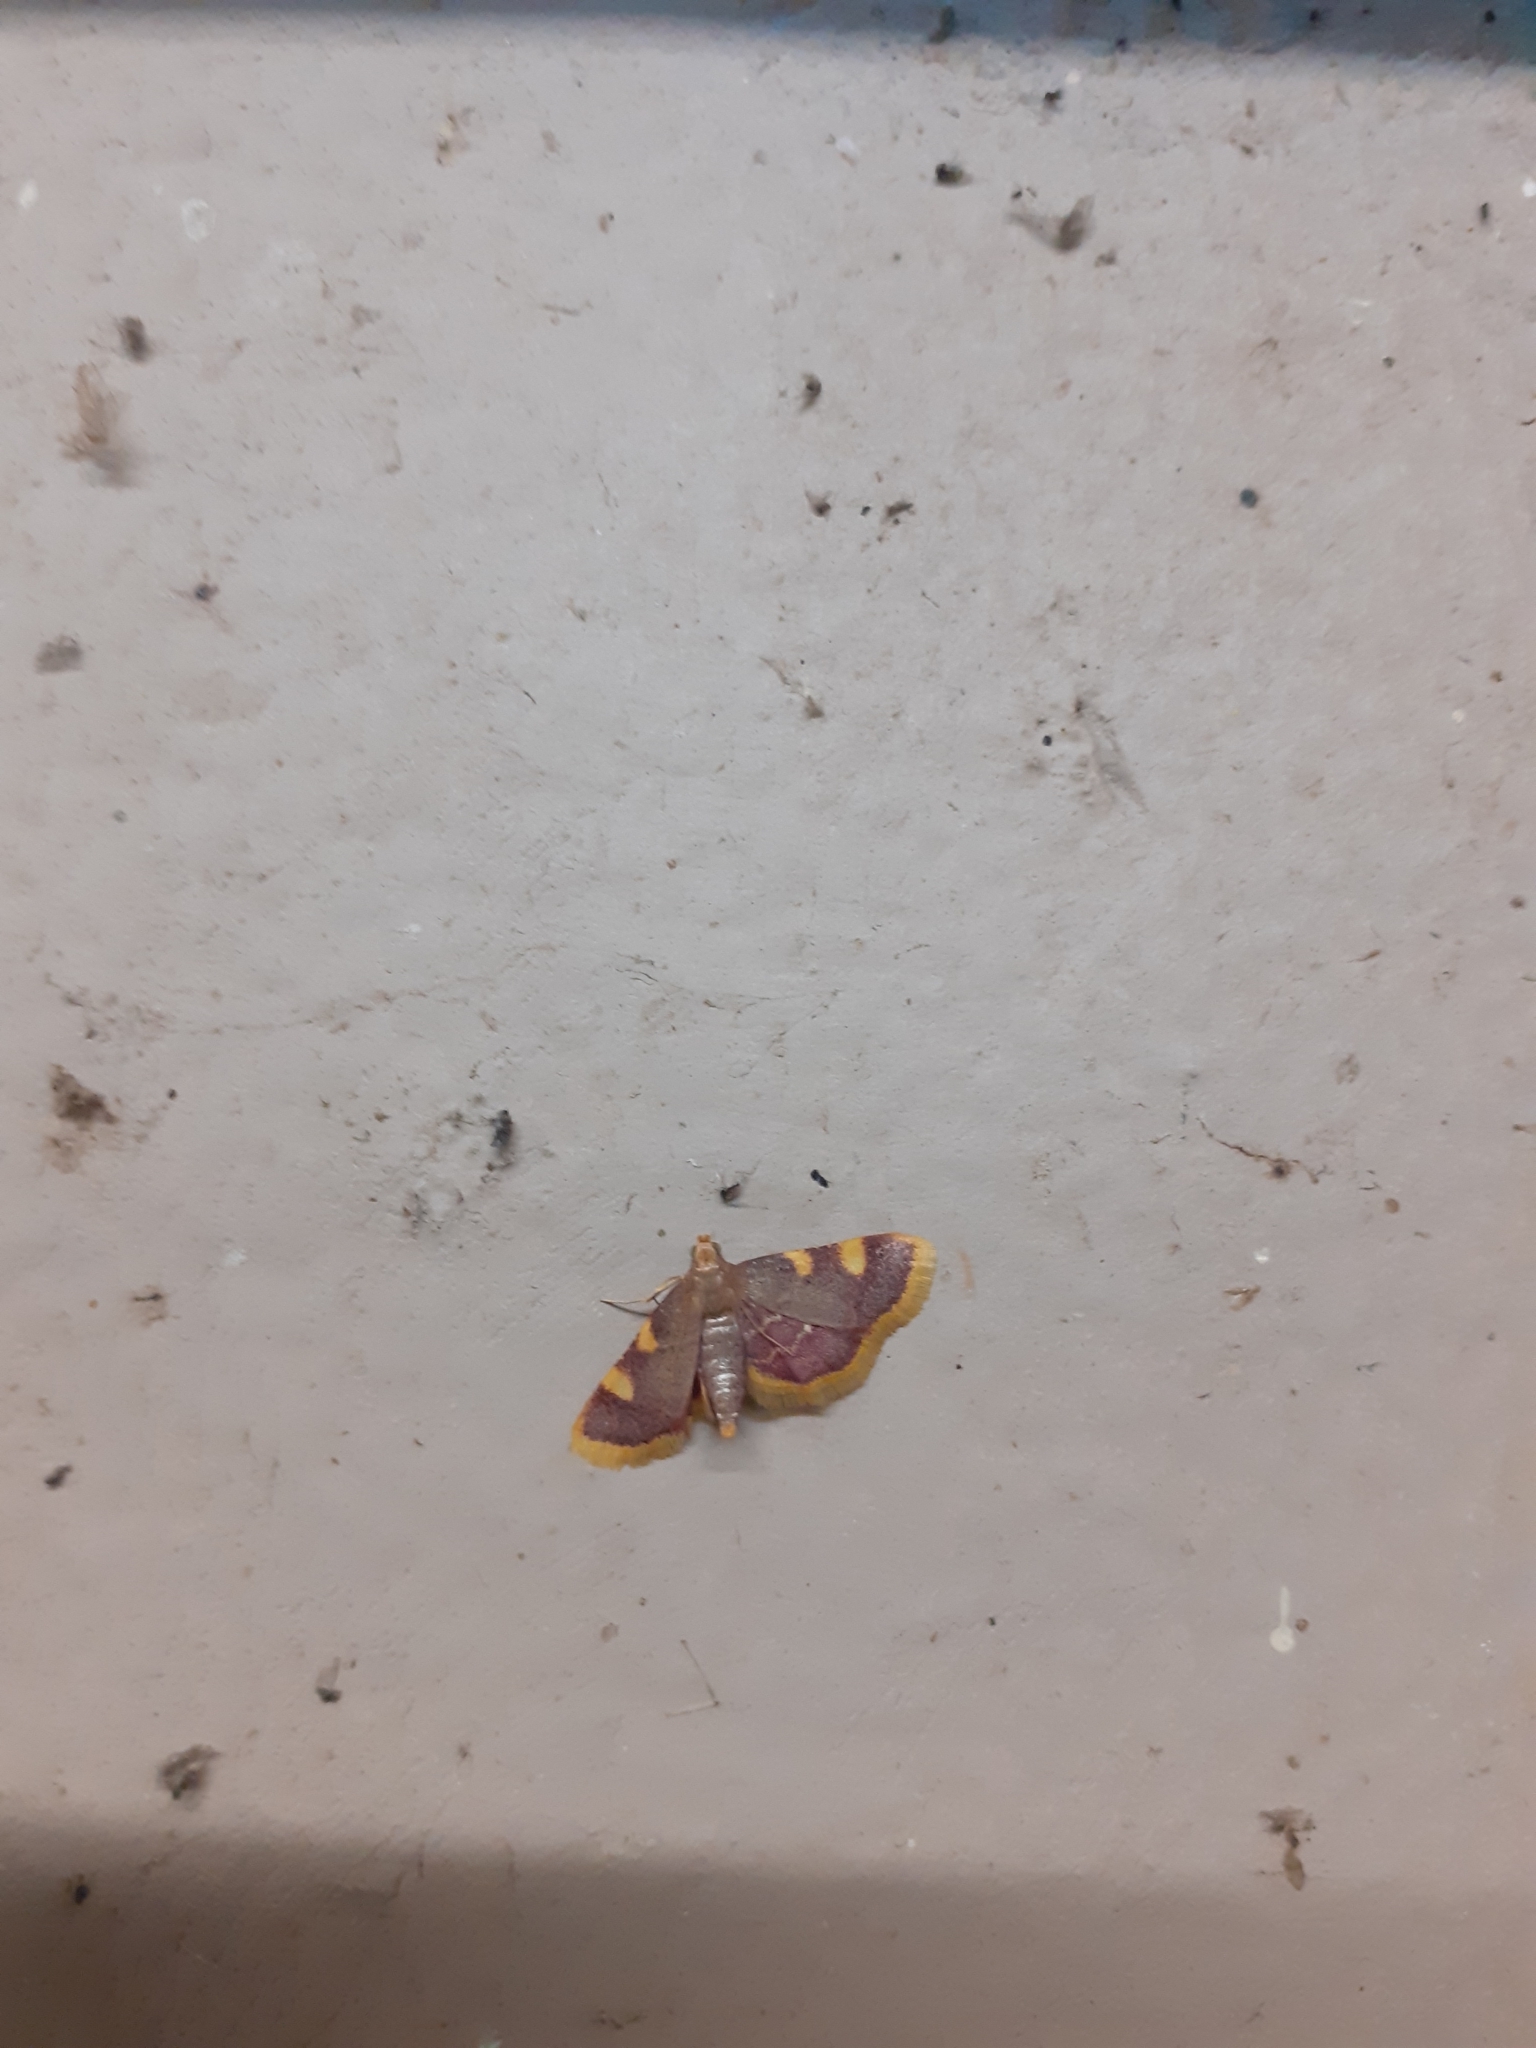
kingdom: Animalia
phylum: Arthropoda
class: Insecta
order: Lepidoptera
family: Pyralidae
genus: Hypsopygia
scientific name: Hypsopygia costalis
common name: Gold triangle
